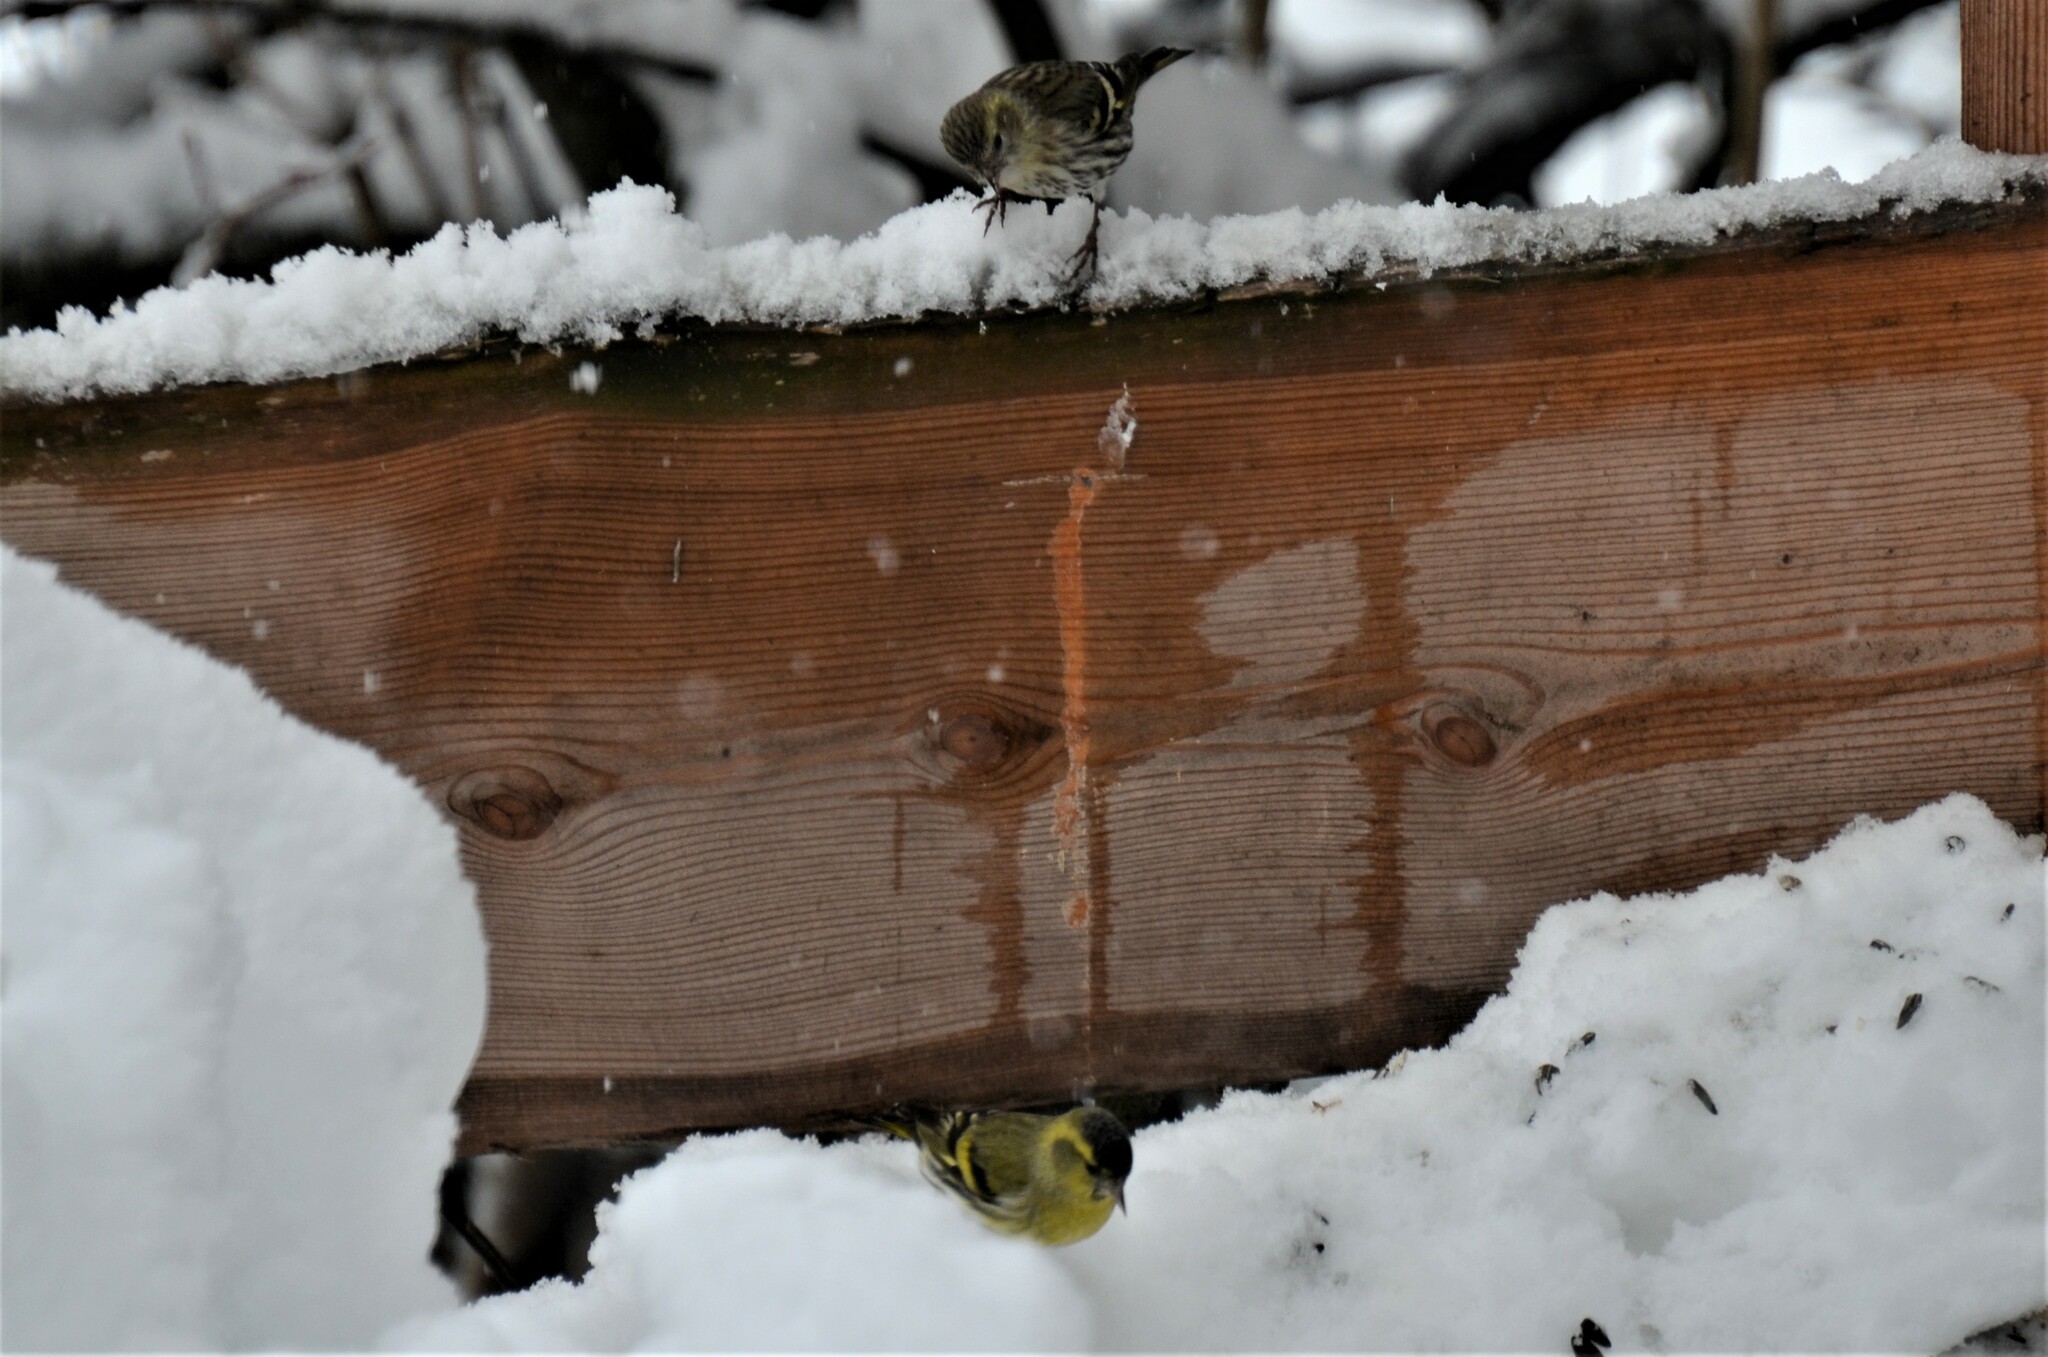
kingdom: Animalia
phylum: Chordata
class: Aves
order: Passeriformes
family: Fringillidae
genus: Spinus
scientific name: Spinus spinus
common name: Eurasian siskin
